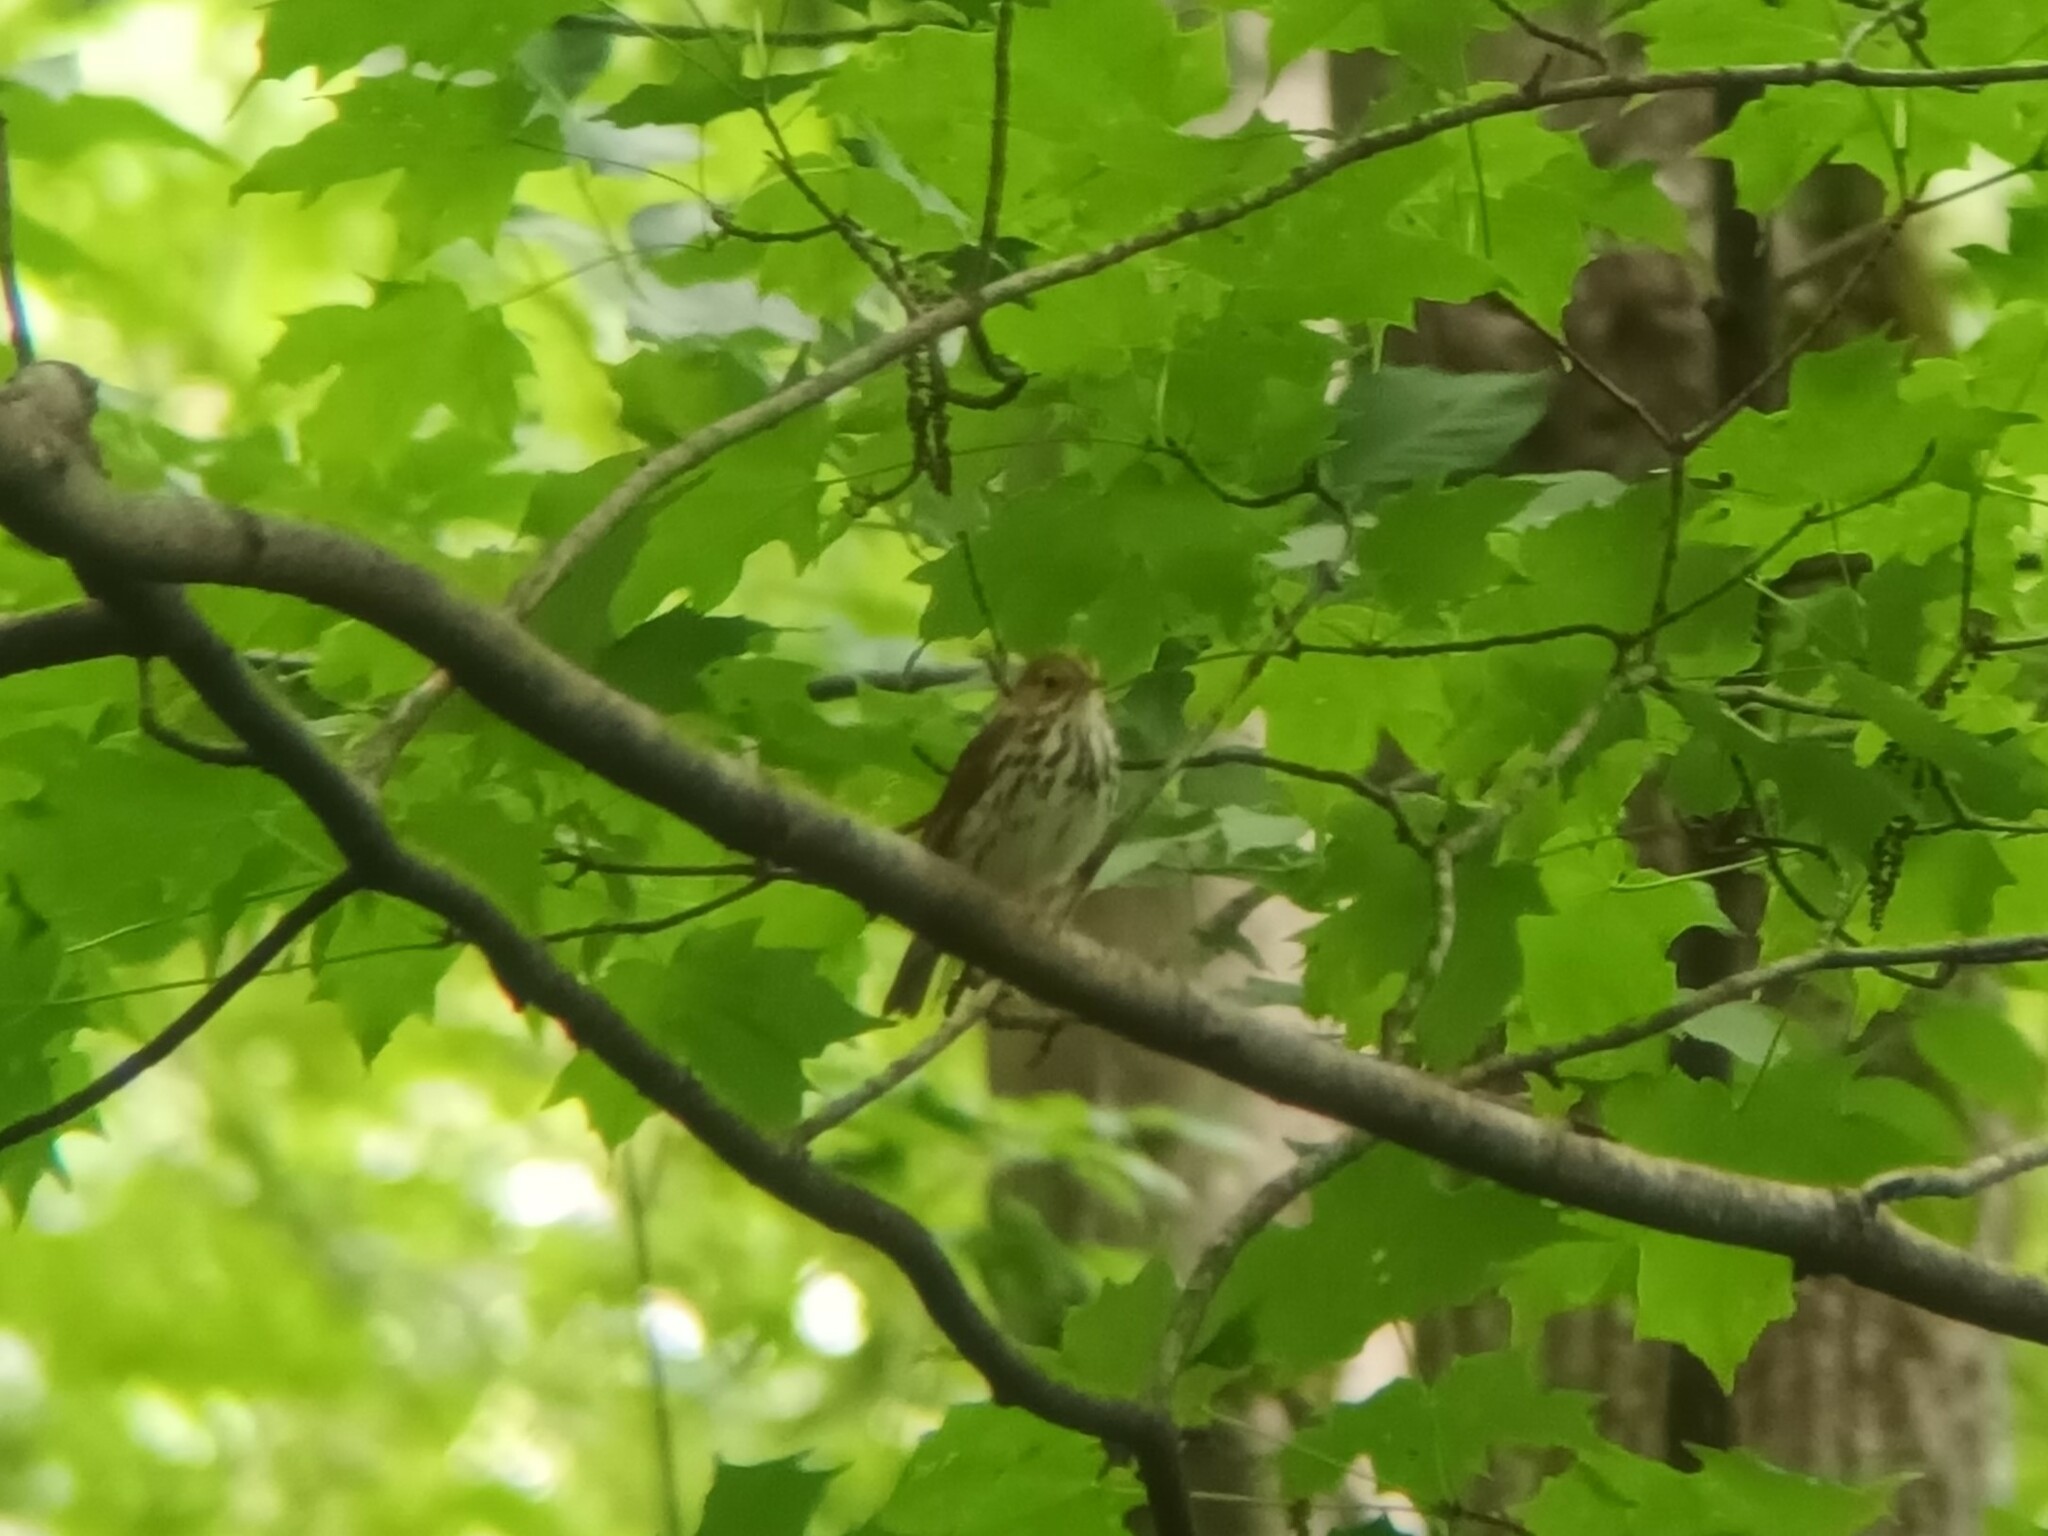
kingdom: Animalia
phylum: Chordata
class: Aves
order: Passeriformes
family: Parulidae
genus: Seiurus
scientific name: Seiurus aurocapilla
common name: Ovenbird
